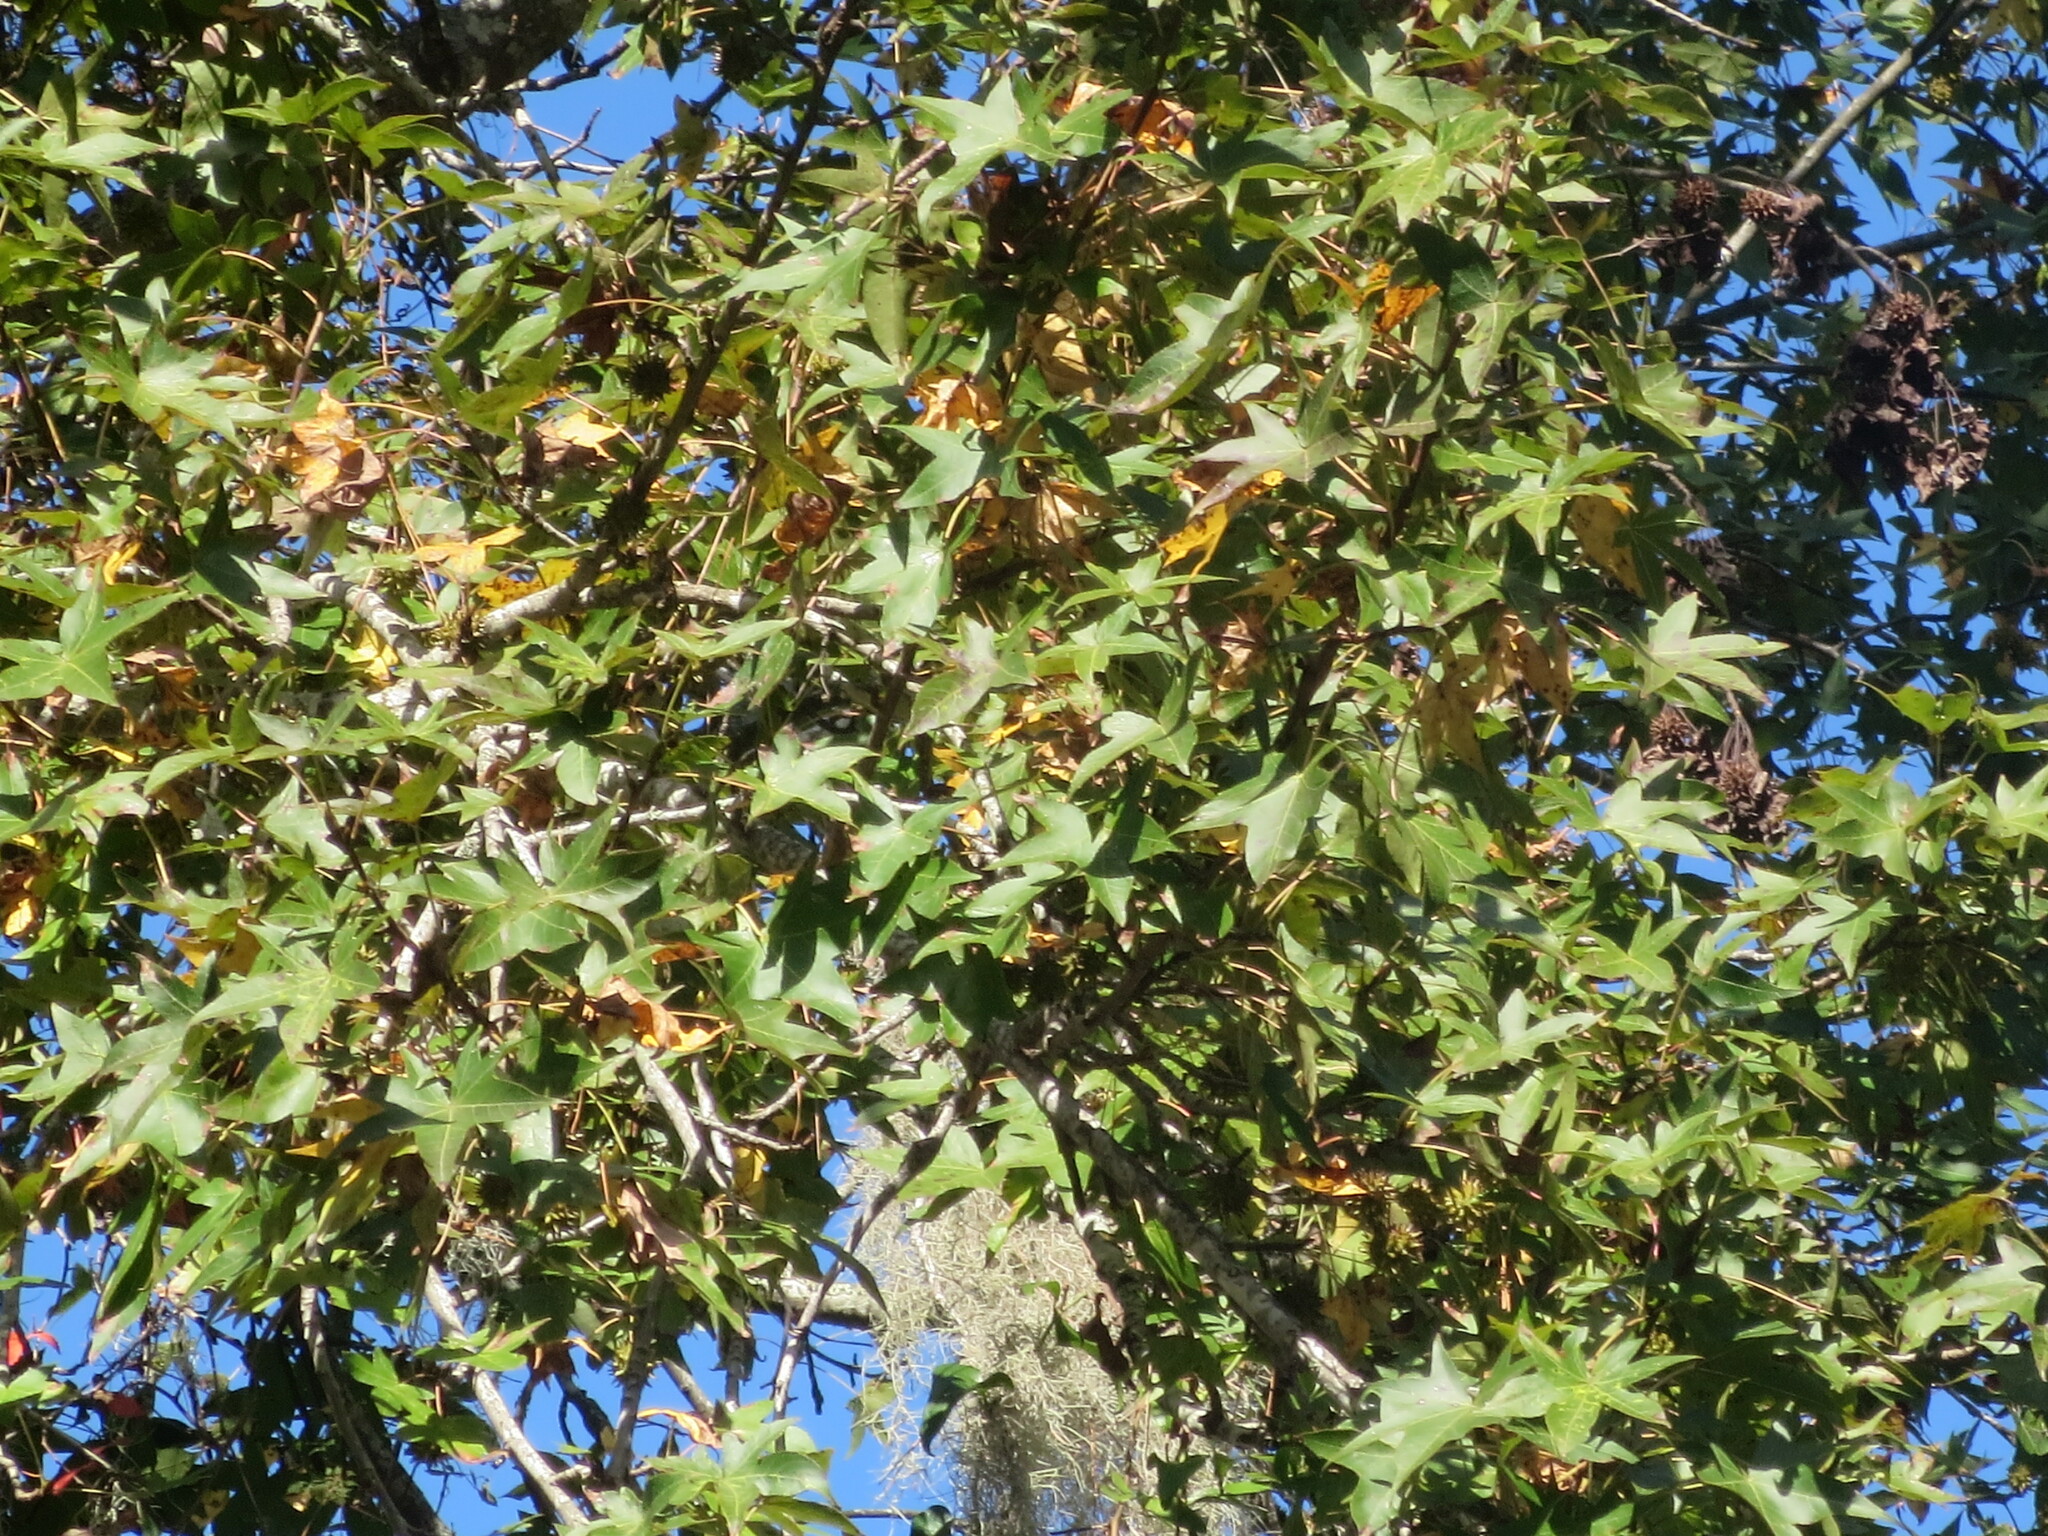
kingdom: Plantae
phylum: Tracheophyta
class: Magnoliopsida
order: Saxifragales
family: Altingiaceae
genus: Liquidambar
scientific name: Liquidambar styraciflua
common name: Sweet gum
